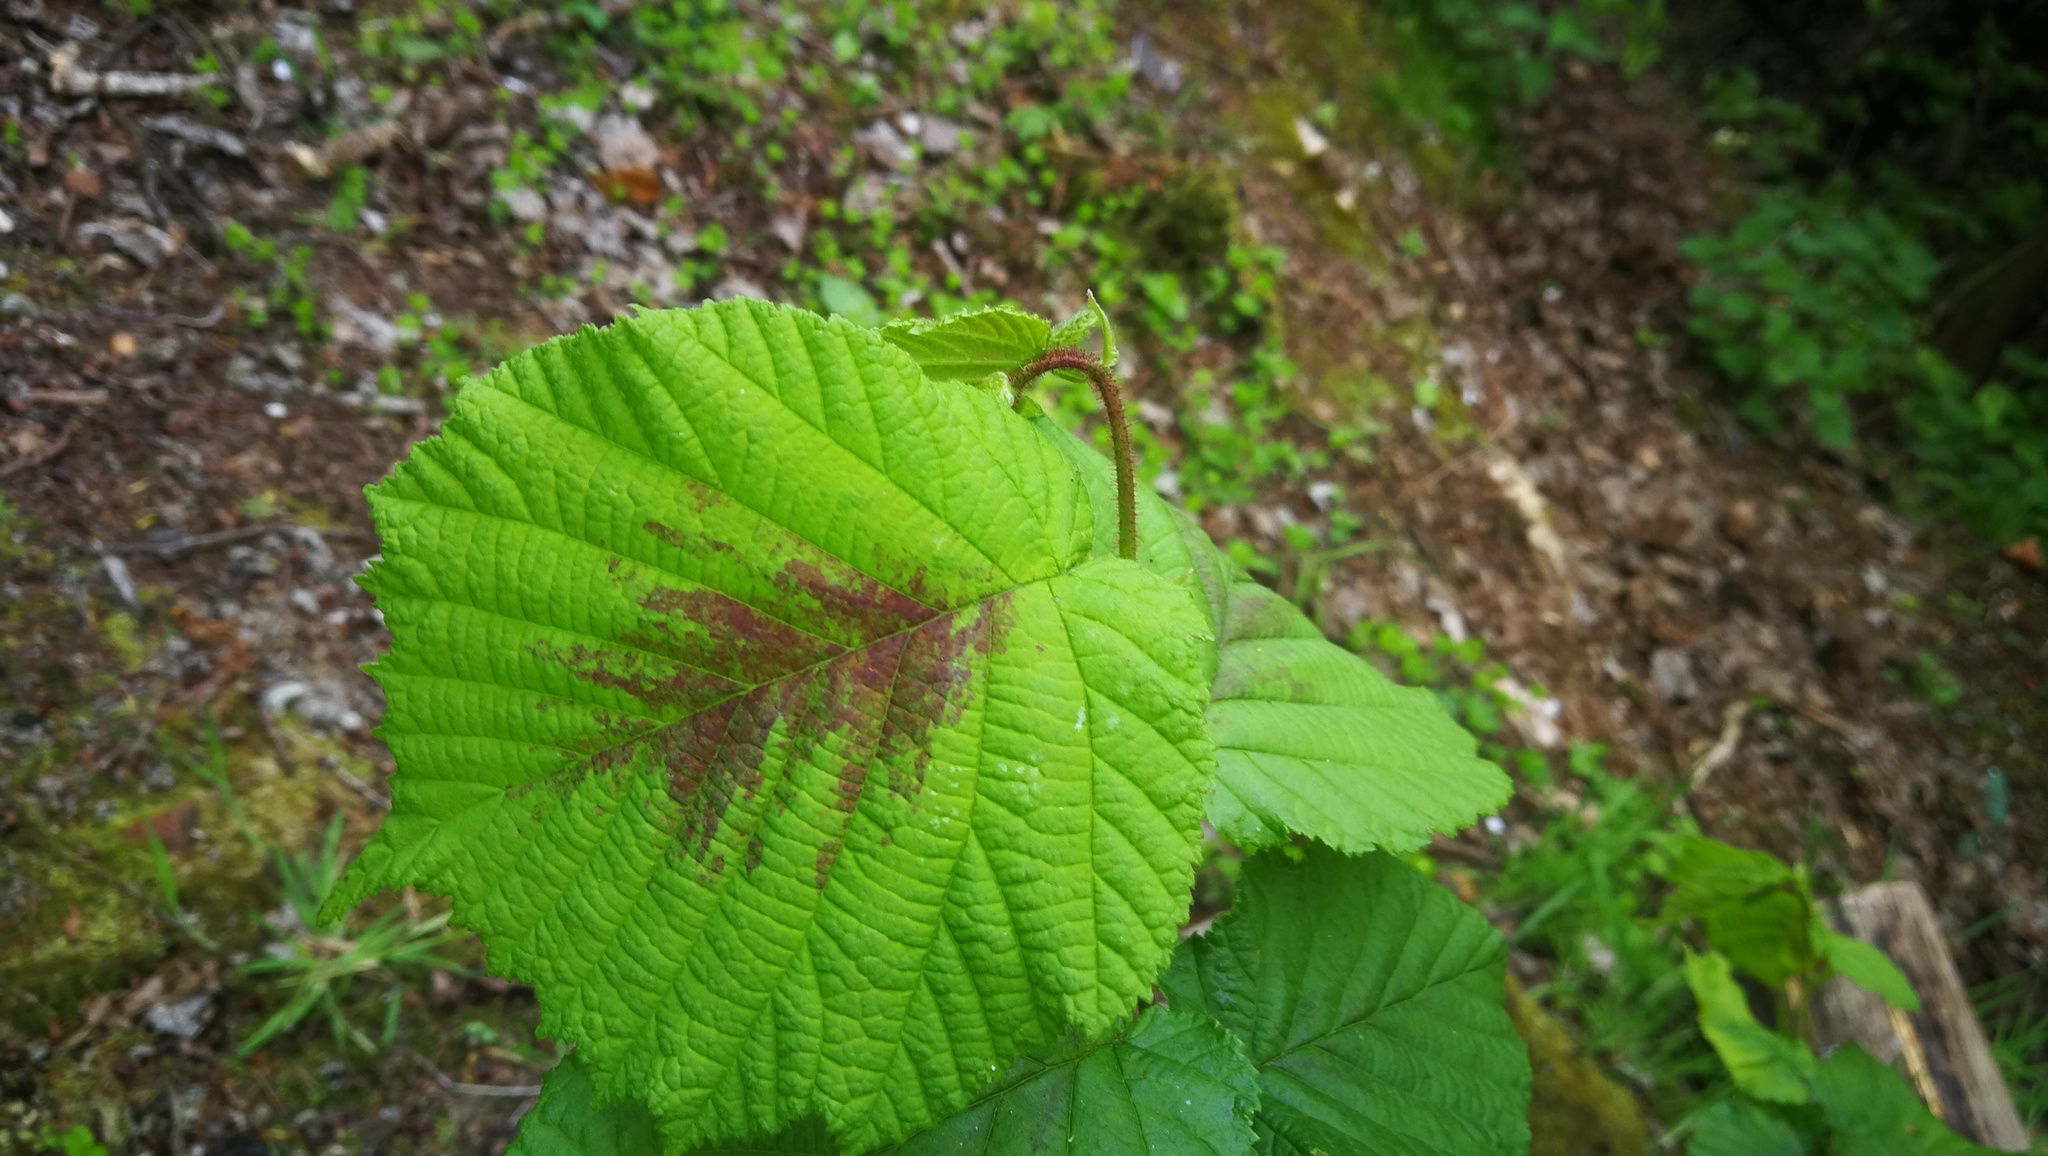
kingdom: Plantae
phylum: Tracheophyta
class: Magnoliopsida
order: Fagales
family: Betulaceae
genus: Corylus
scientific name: Corylus avellana
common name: European hazel
